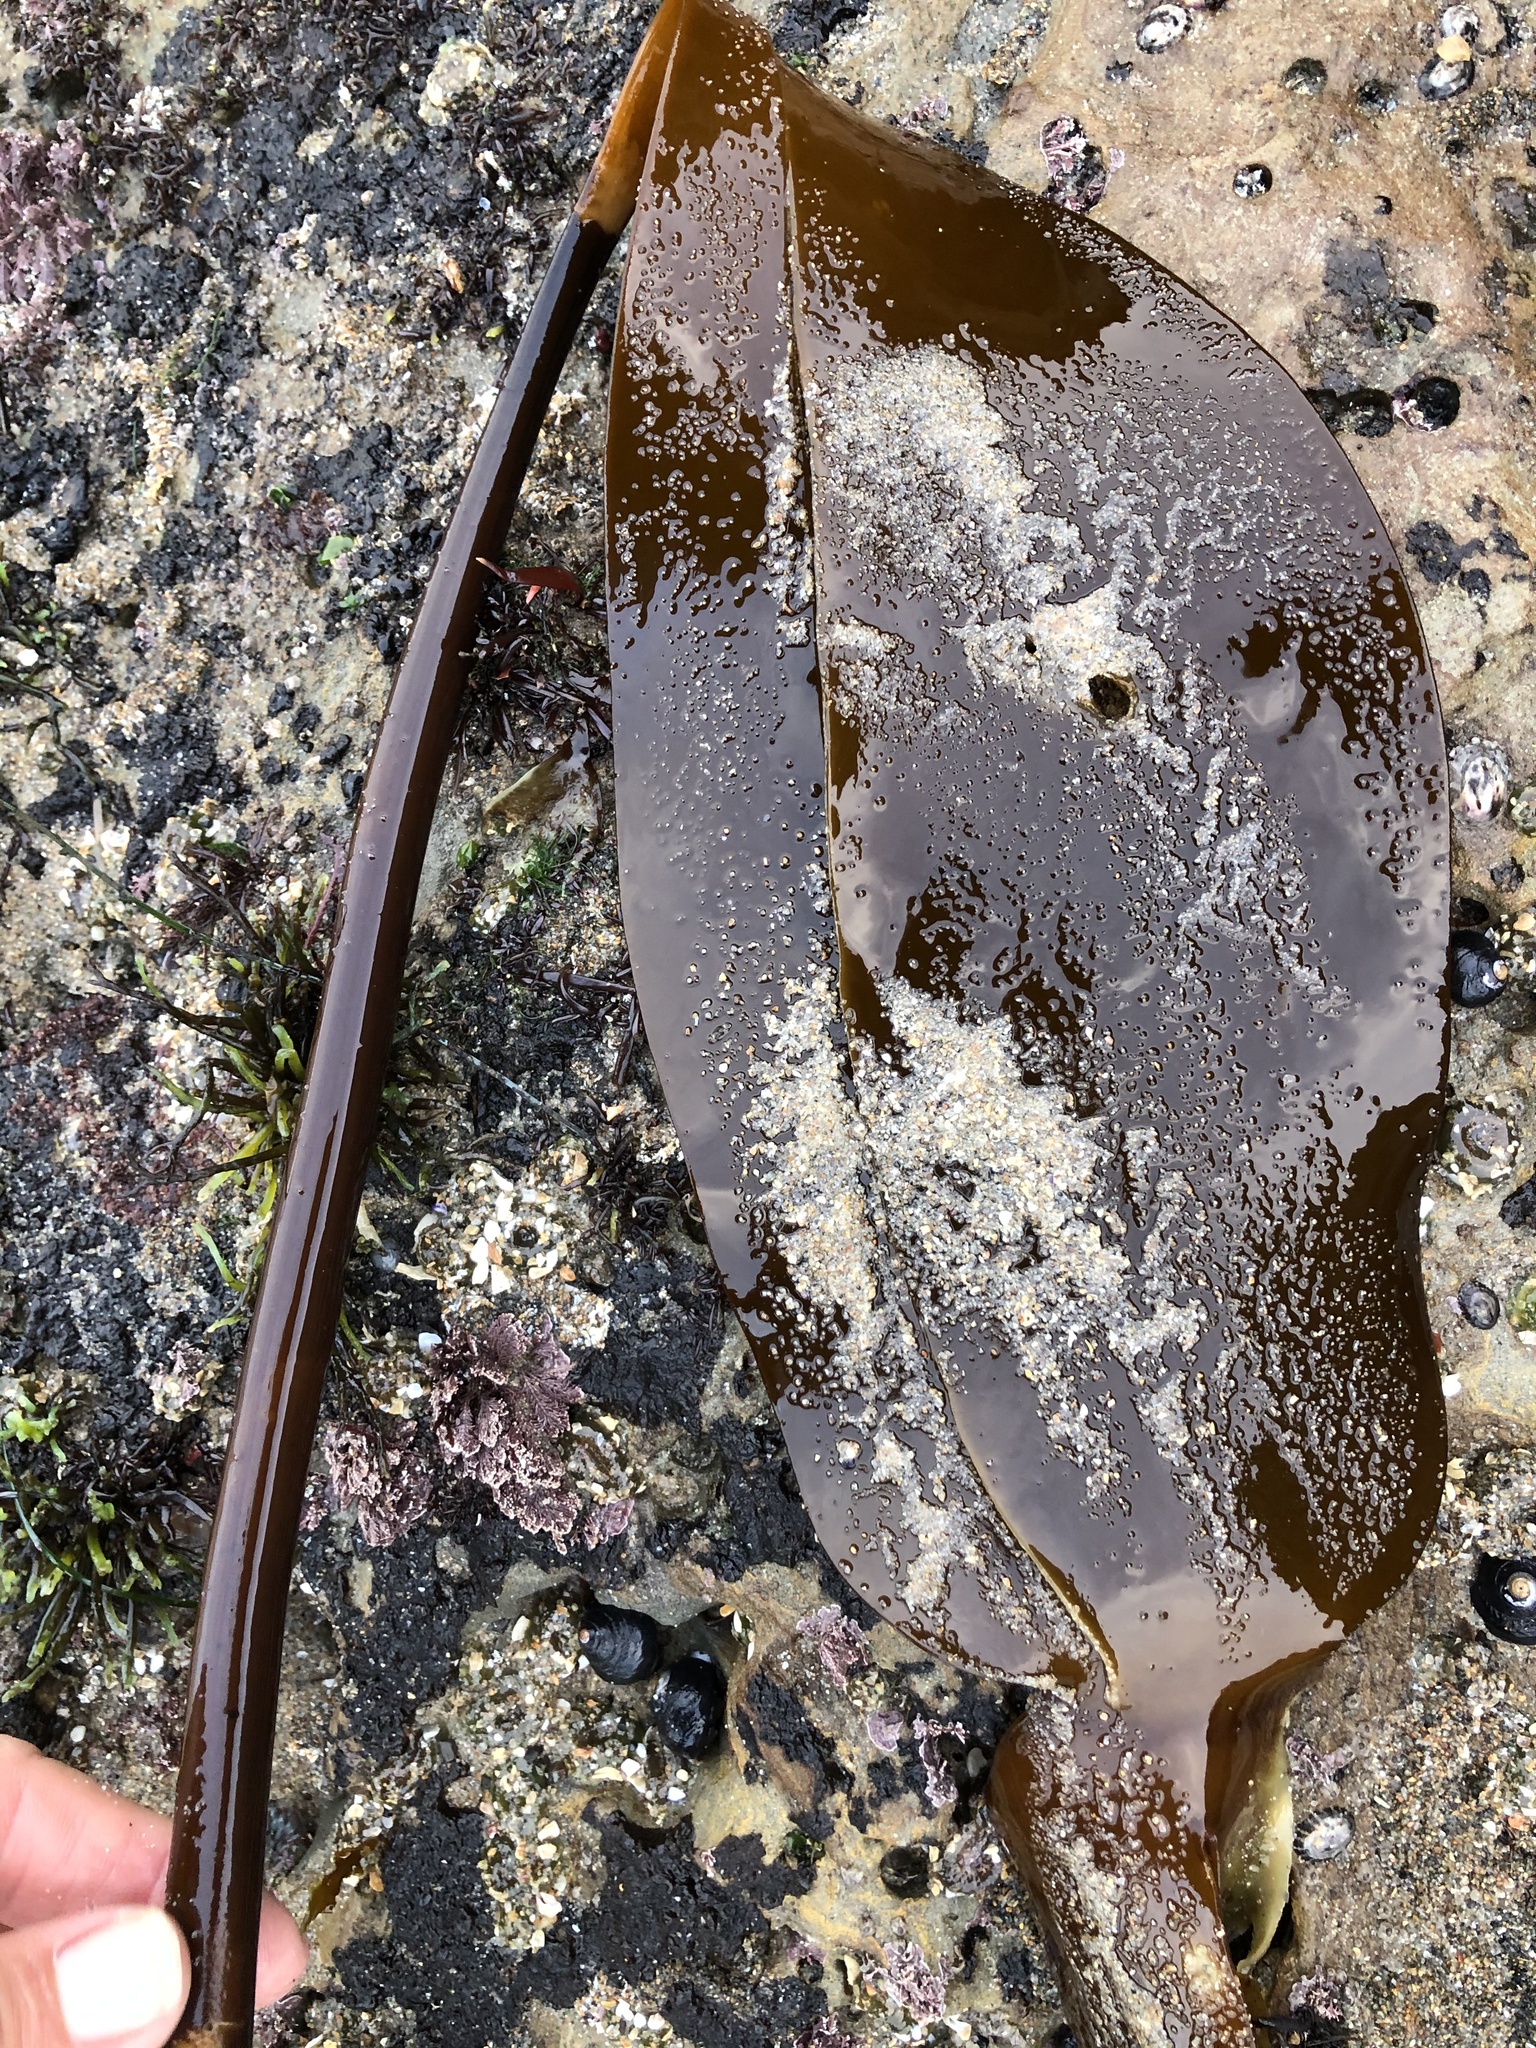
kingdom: Chromista
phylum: Ochrophyta
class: Phaeophyceae
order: Laminariales
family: Laminariaceae
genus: Laminaria
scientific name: Laminaria setchellii
